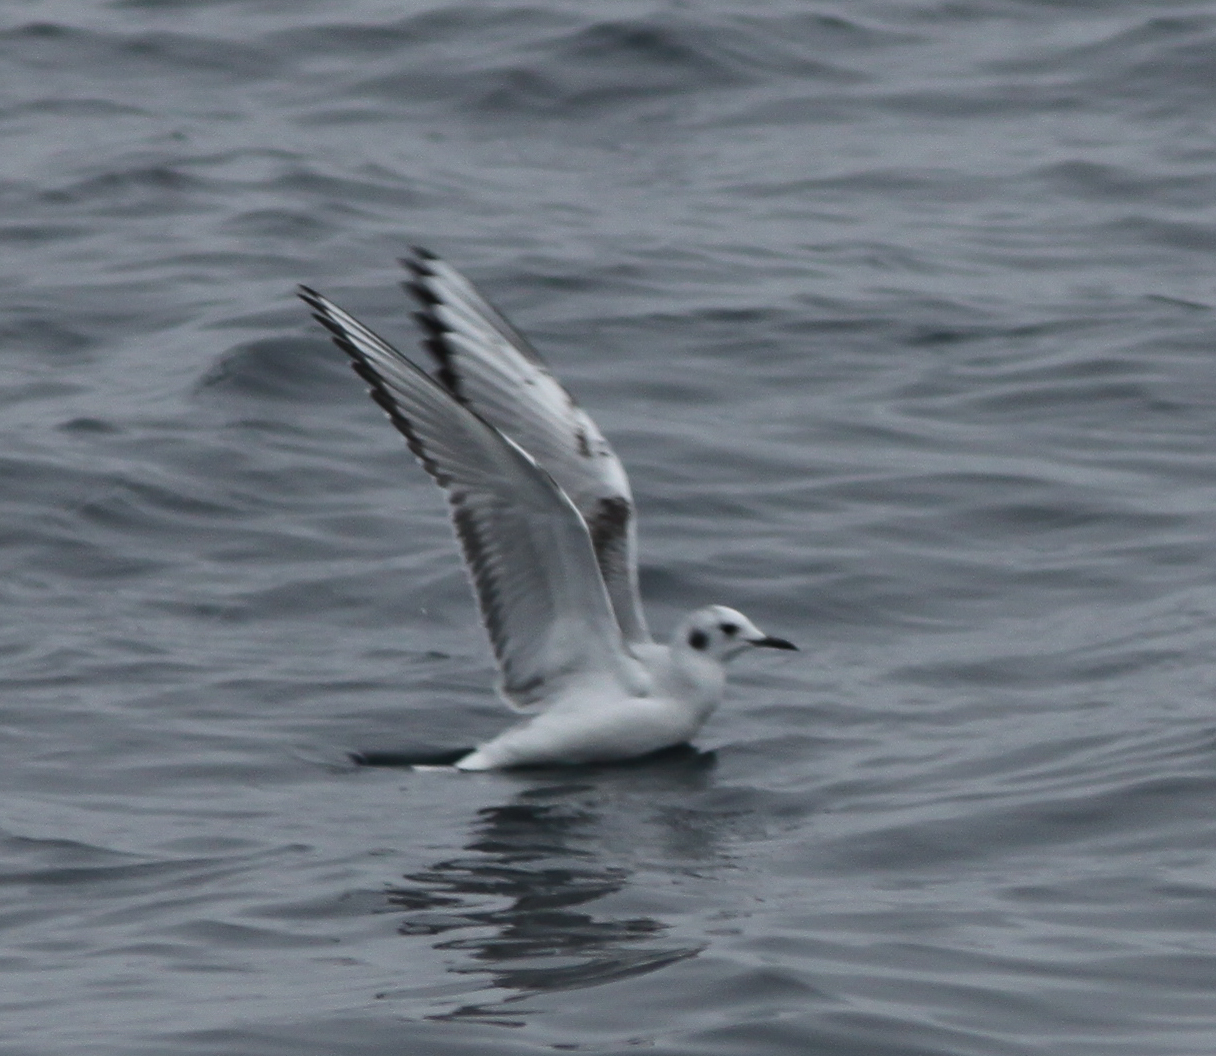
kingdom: Animalia
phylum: Chordata
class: Aves
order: Charadriiformes
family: Laridae
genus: Chroicocephalus
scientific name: Chroicocephalus philadelphia
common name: Bonaparte's gull
